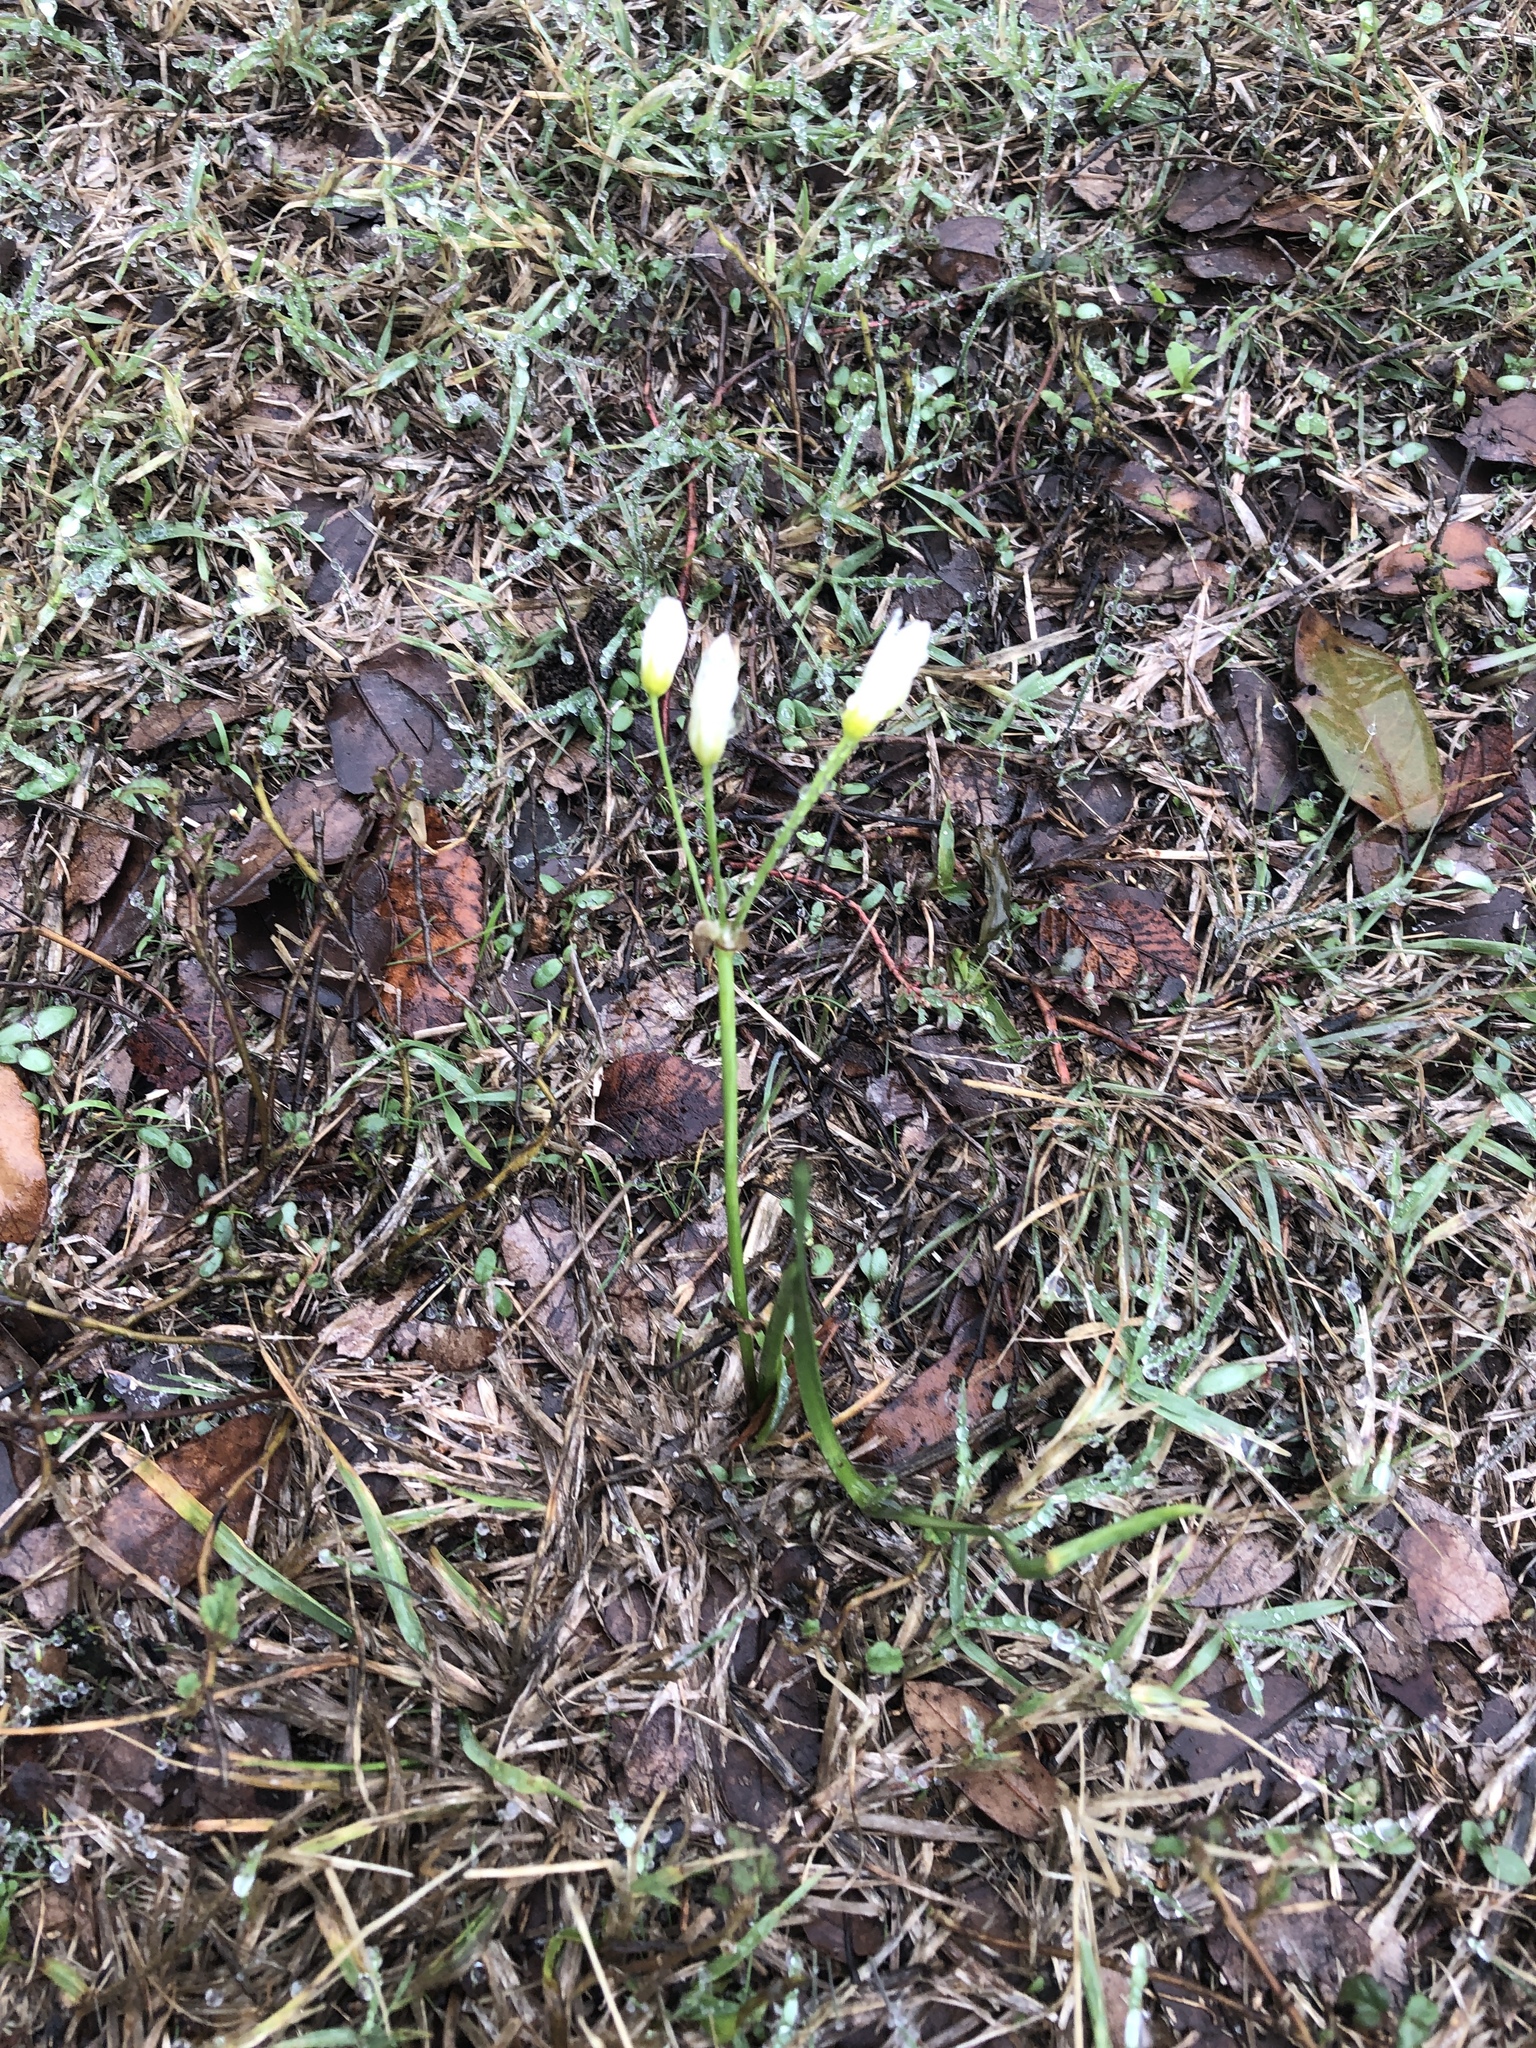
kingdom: Plantae
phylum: Tracheophyta
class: Liliopsida
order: Asparagales
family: Amaryllidaceae
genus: Nothoscordum
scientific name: Nothoscordum bivalve
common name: Crow-poison
